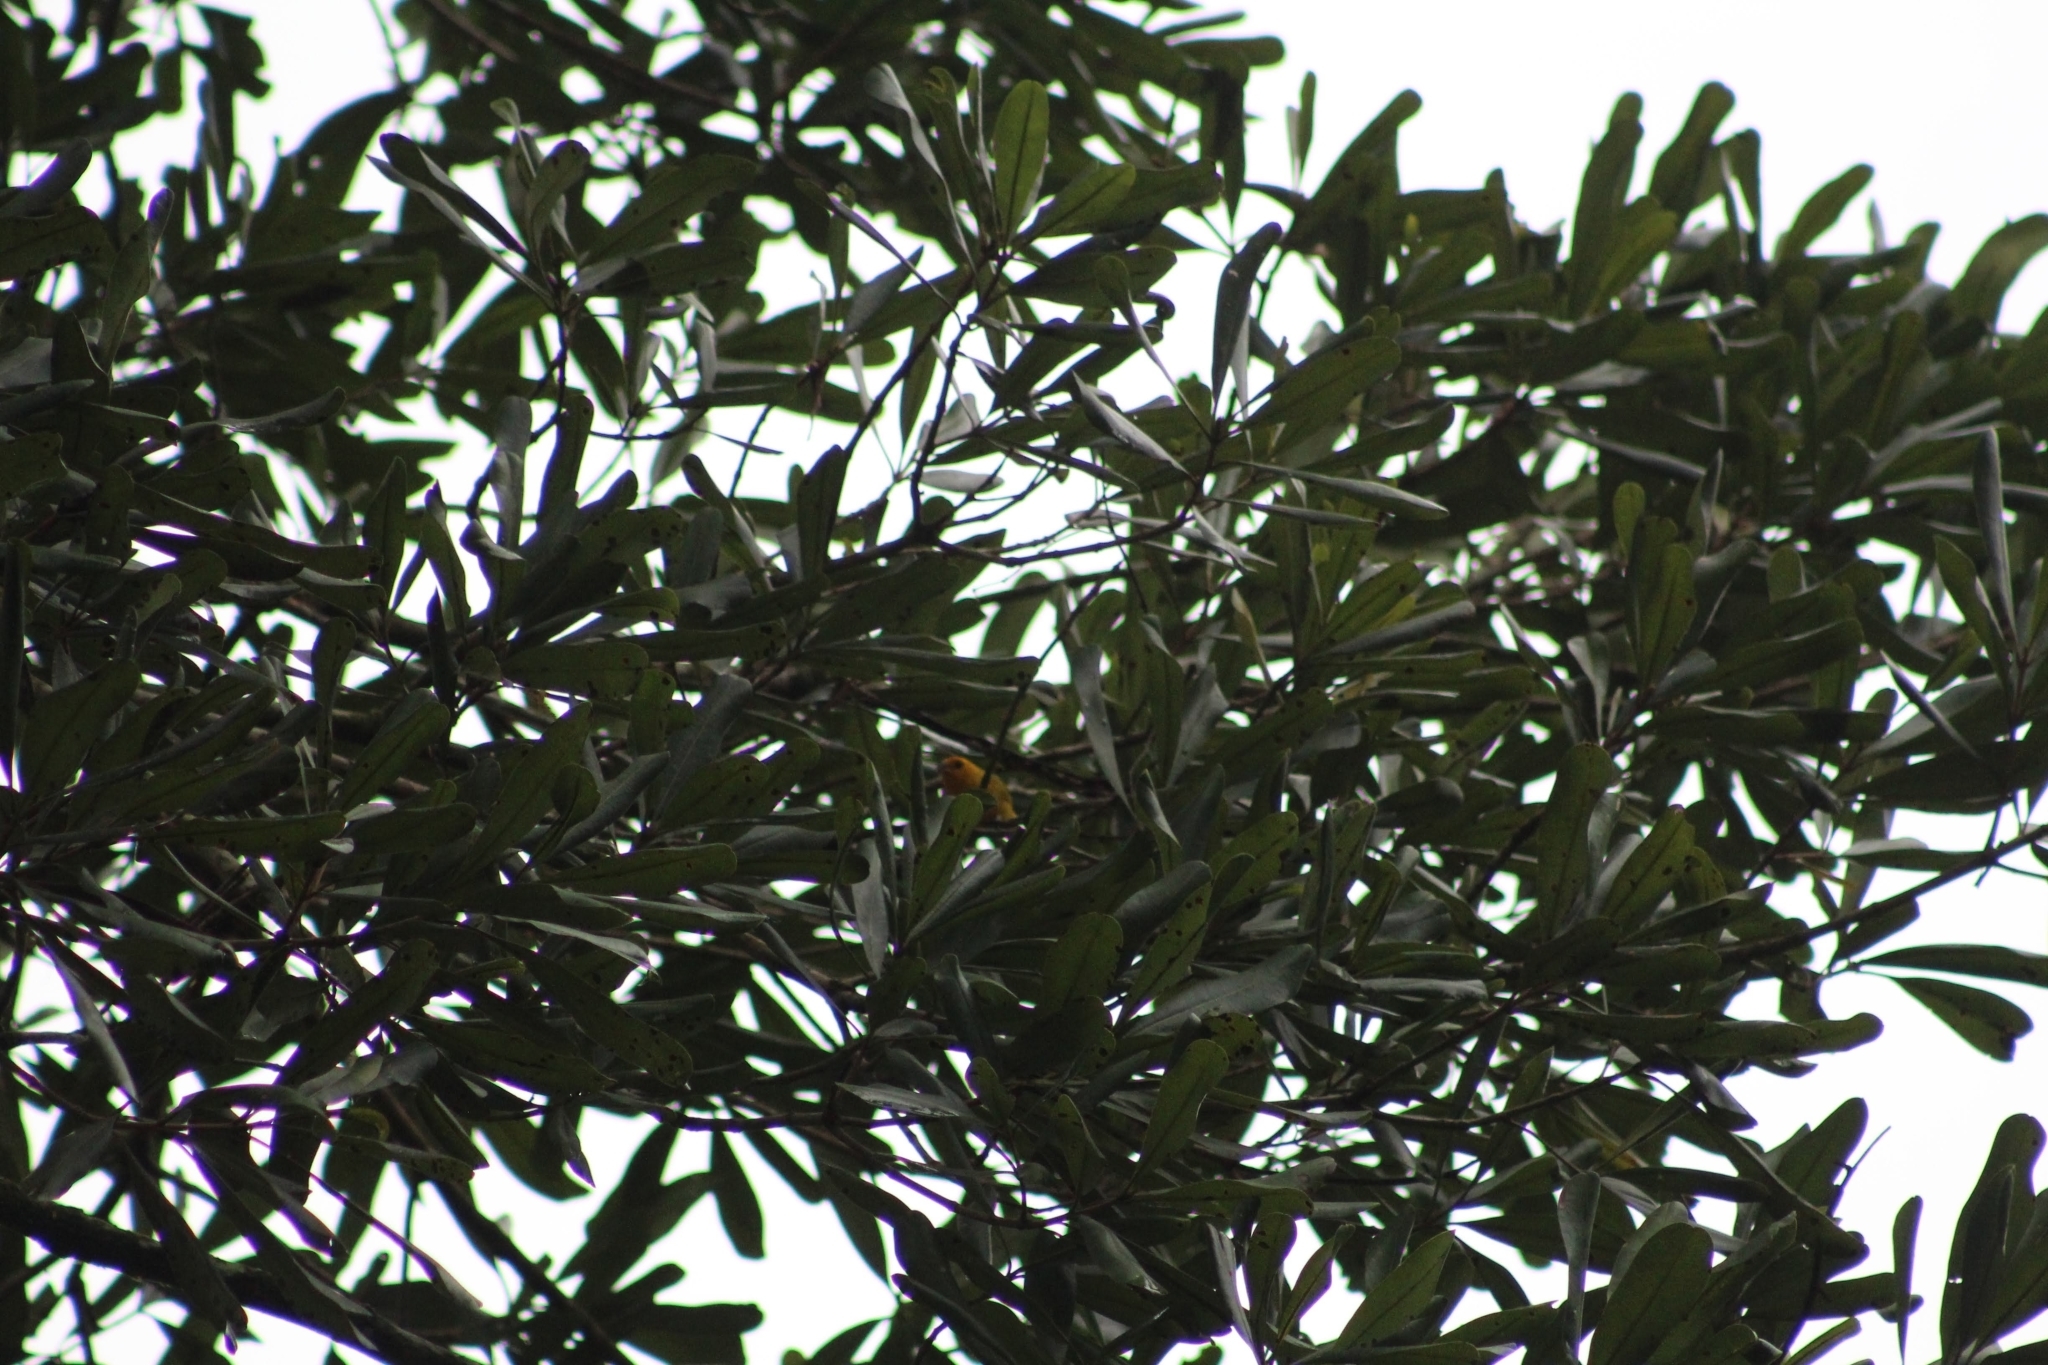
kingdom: Animalia
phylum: Chordata
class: Aves
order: Passeriformes
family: Thraupidae
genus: Sicalis
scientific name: Sicalis flaveola
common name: Saffron finch
